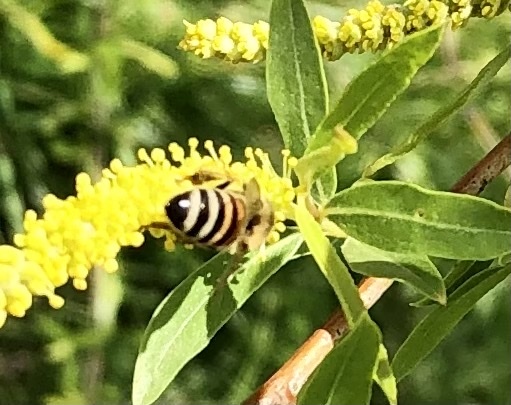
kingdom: Animalia
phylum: Arthropoda
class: Insecta
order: Hymenoptera
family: Apidae
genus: Apis
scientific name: Apis mellifera
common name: Honey bee
